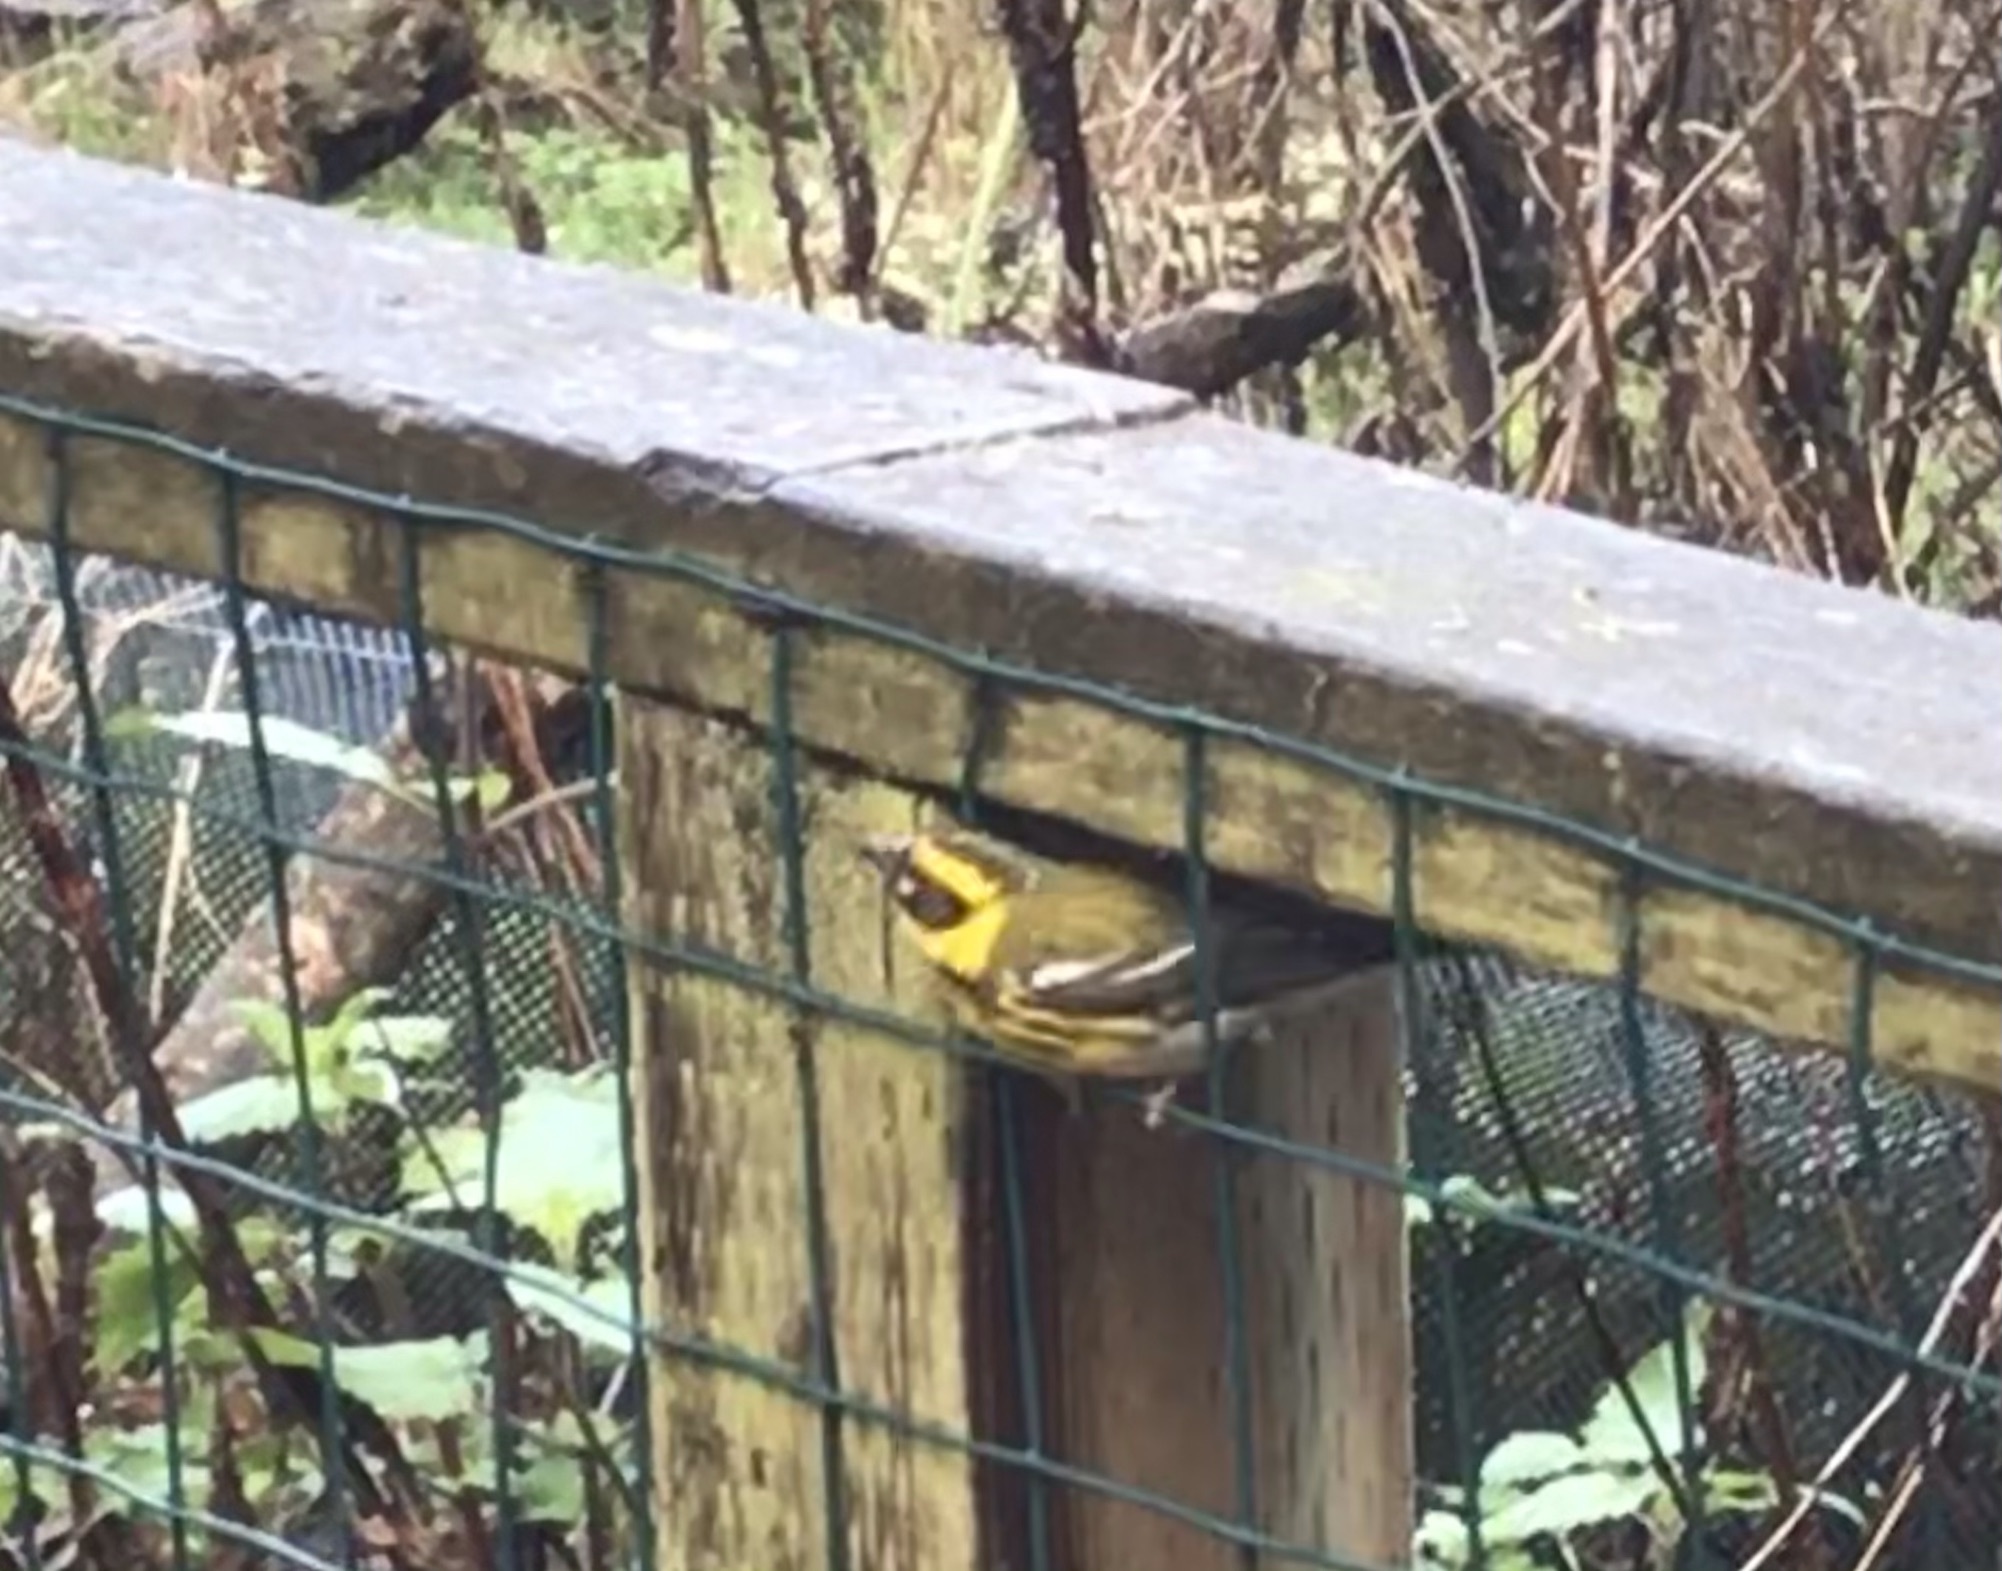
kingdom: Animalia
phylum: Chordata
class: Aves
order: Passeriformes
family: Parulidae
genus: Setophaga
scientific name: Setophaga townsendi
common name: Townsend's warbler
